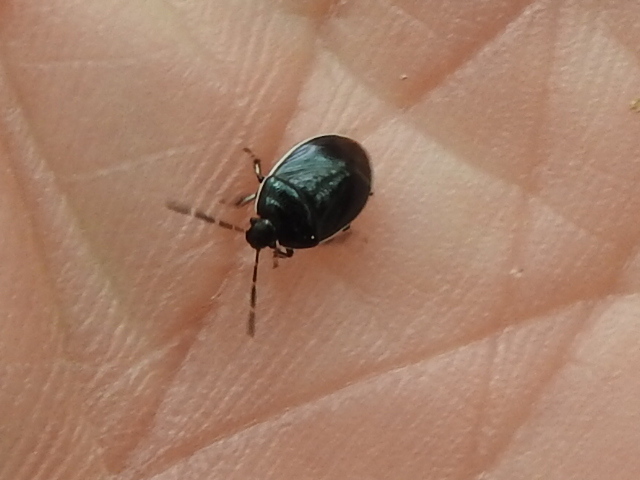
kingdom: Animalia
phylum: Arthropoda
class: Insecta
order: Hemiptera
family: Cydnidae
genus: Sehirus
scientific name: Sehirus cinctus
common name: White-margined burrower bug
